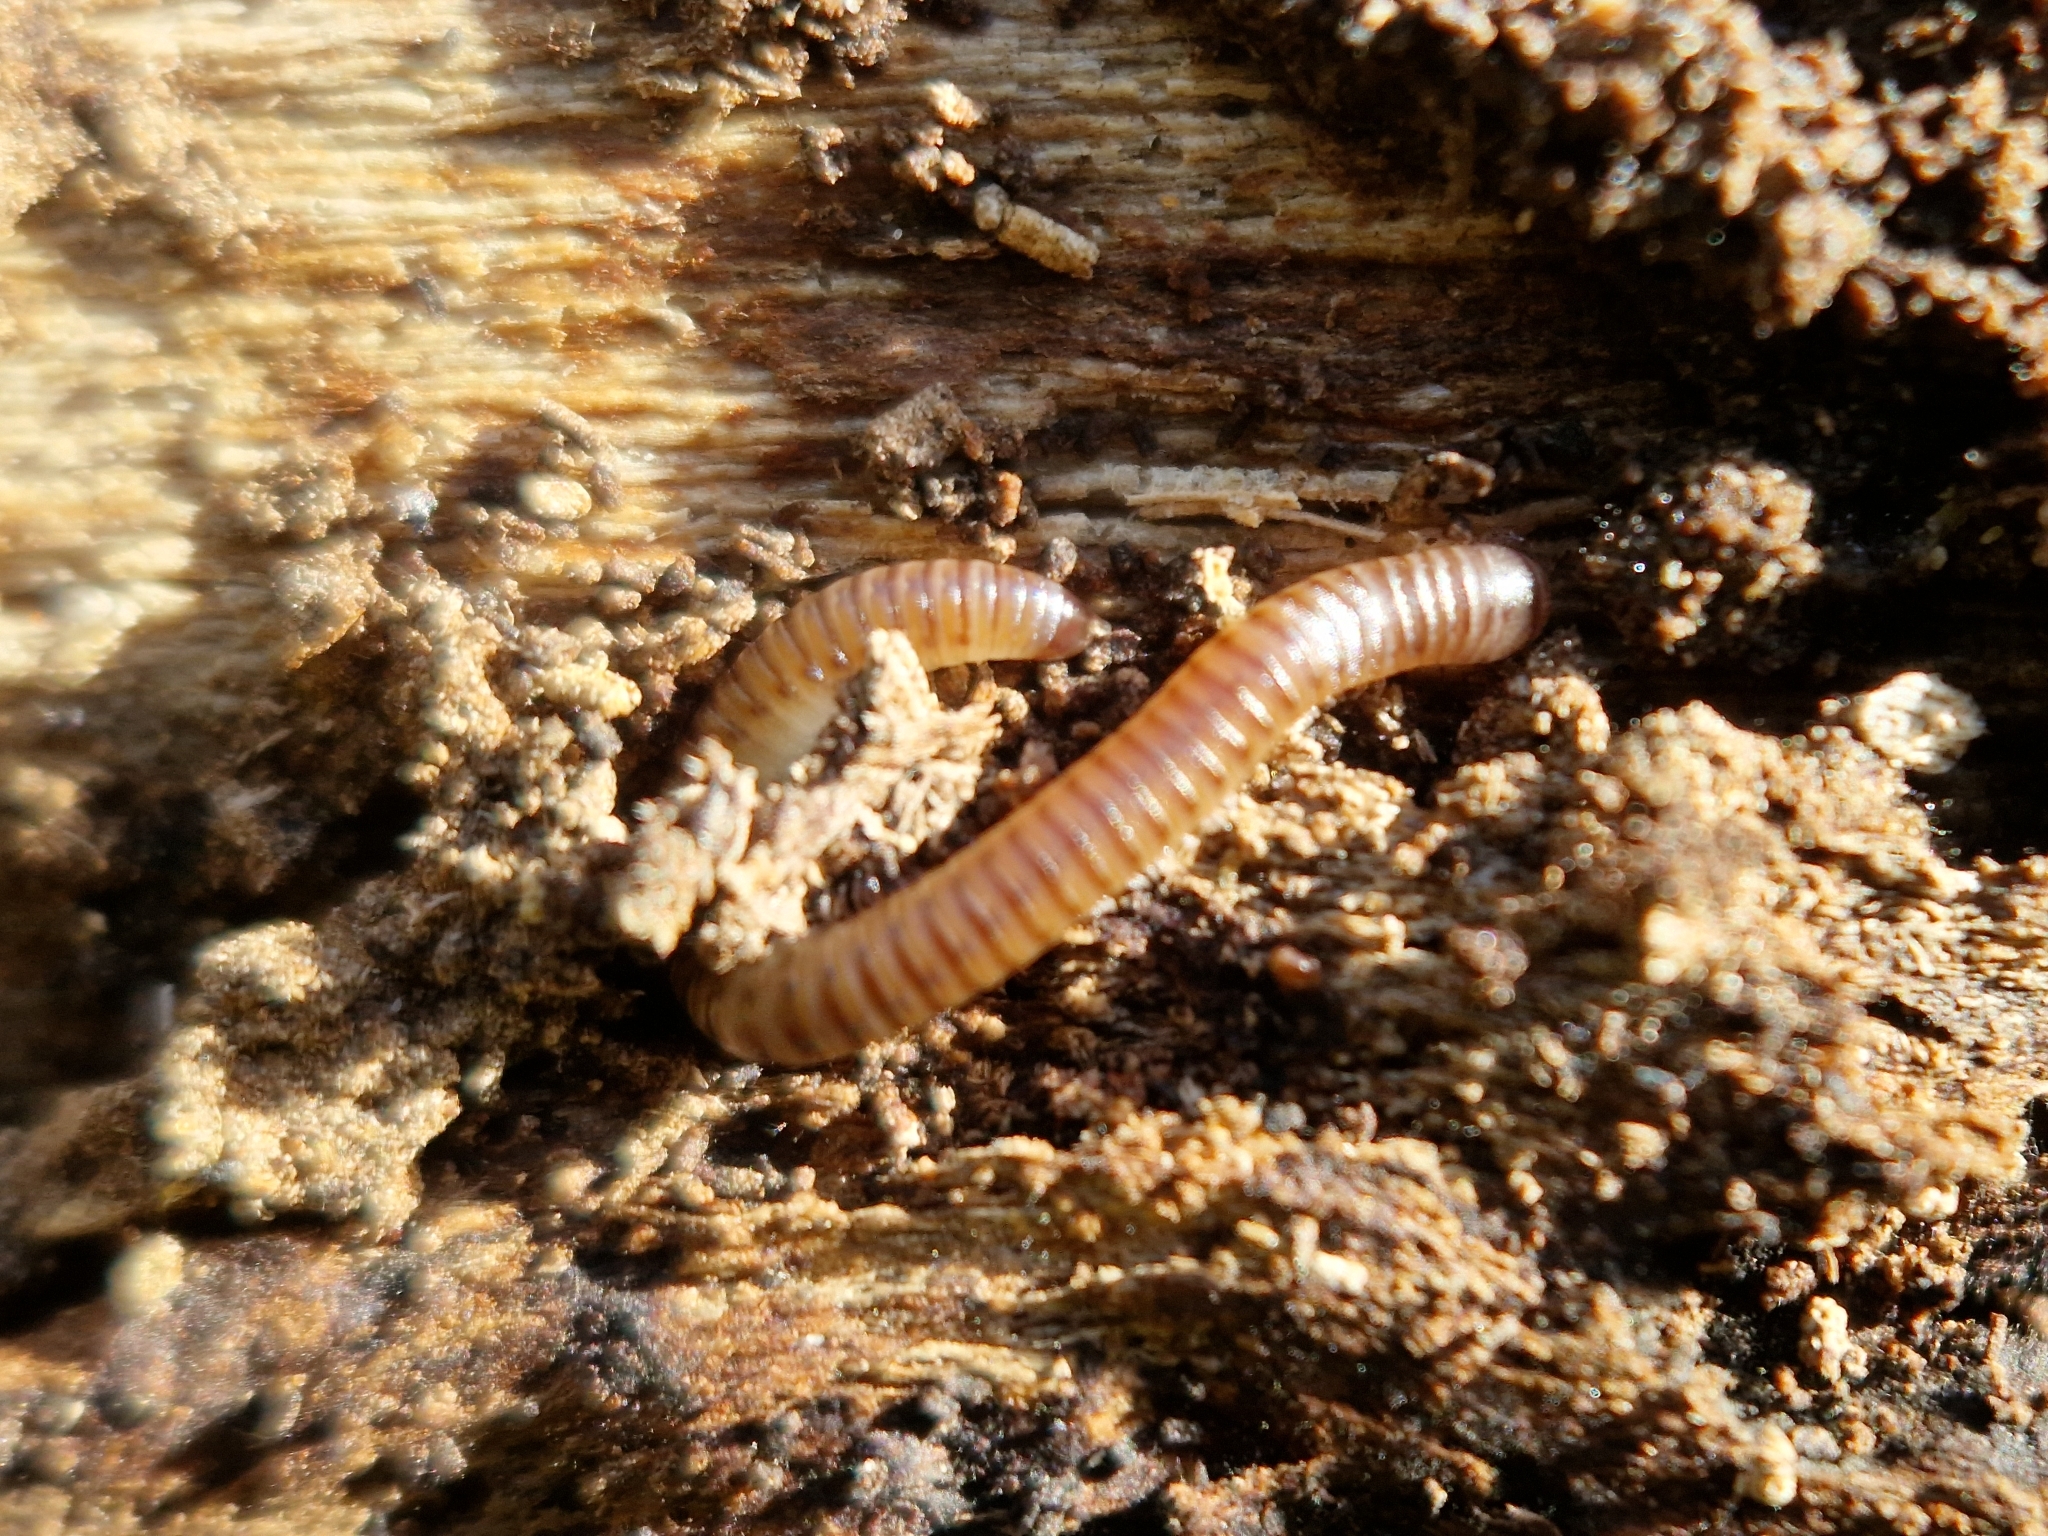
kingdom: Animalia
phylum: Arthropoda
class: Diplopoda
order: Julida
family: Julidae
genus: Cylindroiulus
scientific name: Cylindroiulus punctatus
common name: Blunt-tailed millipede
